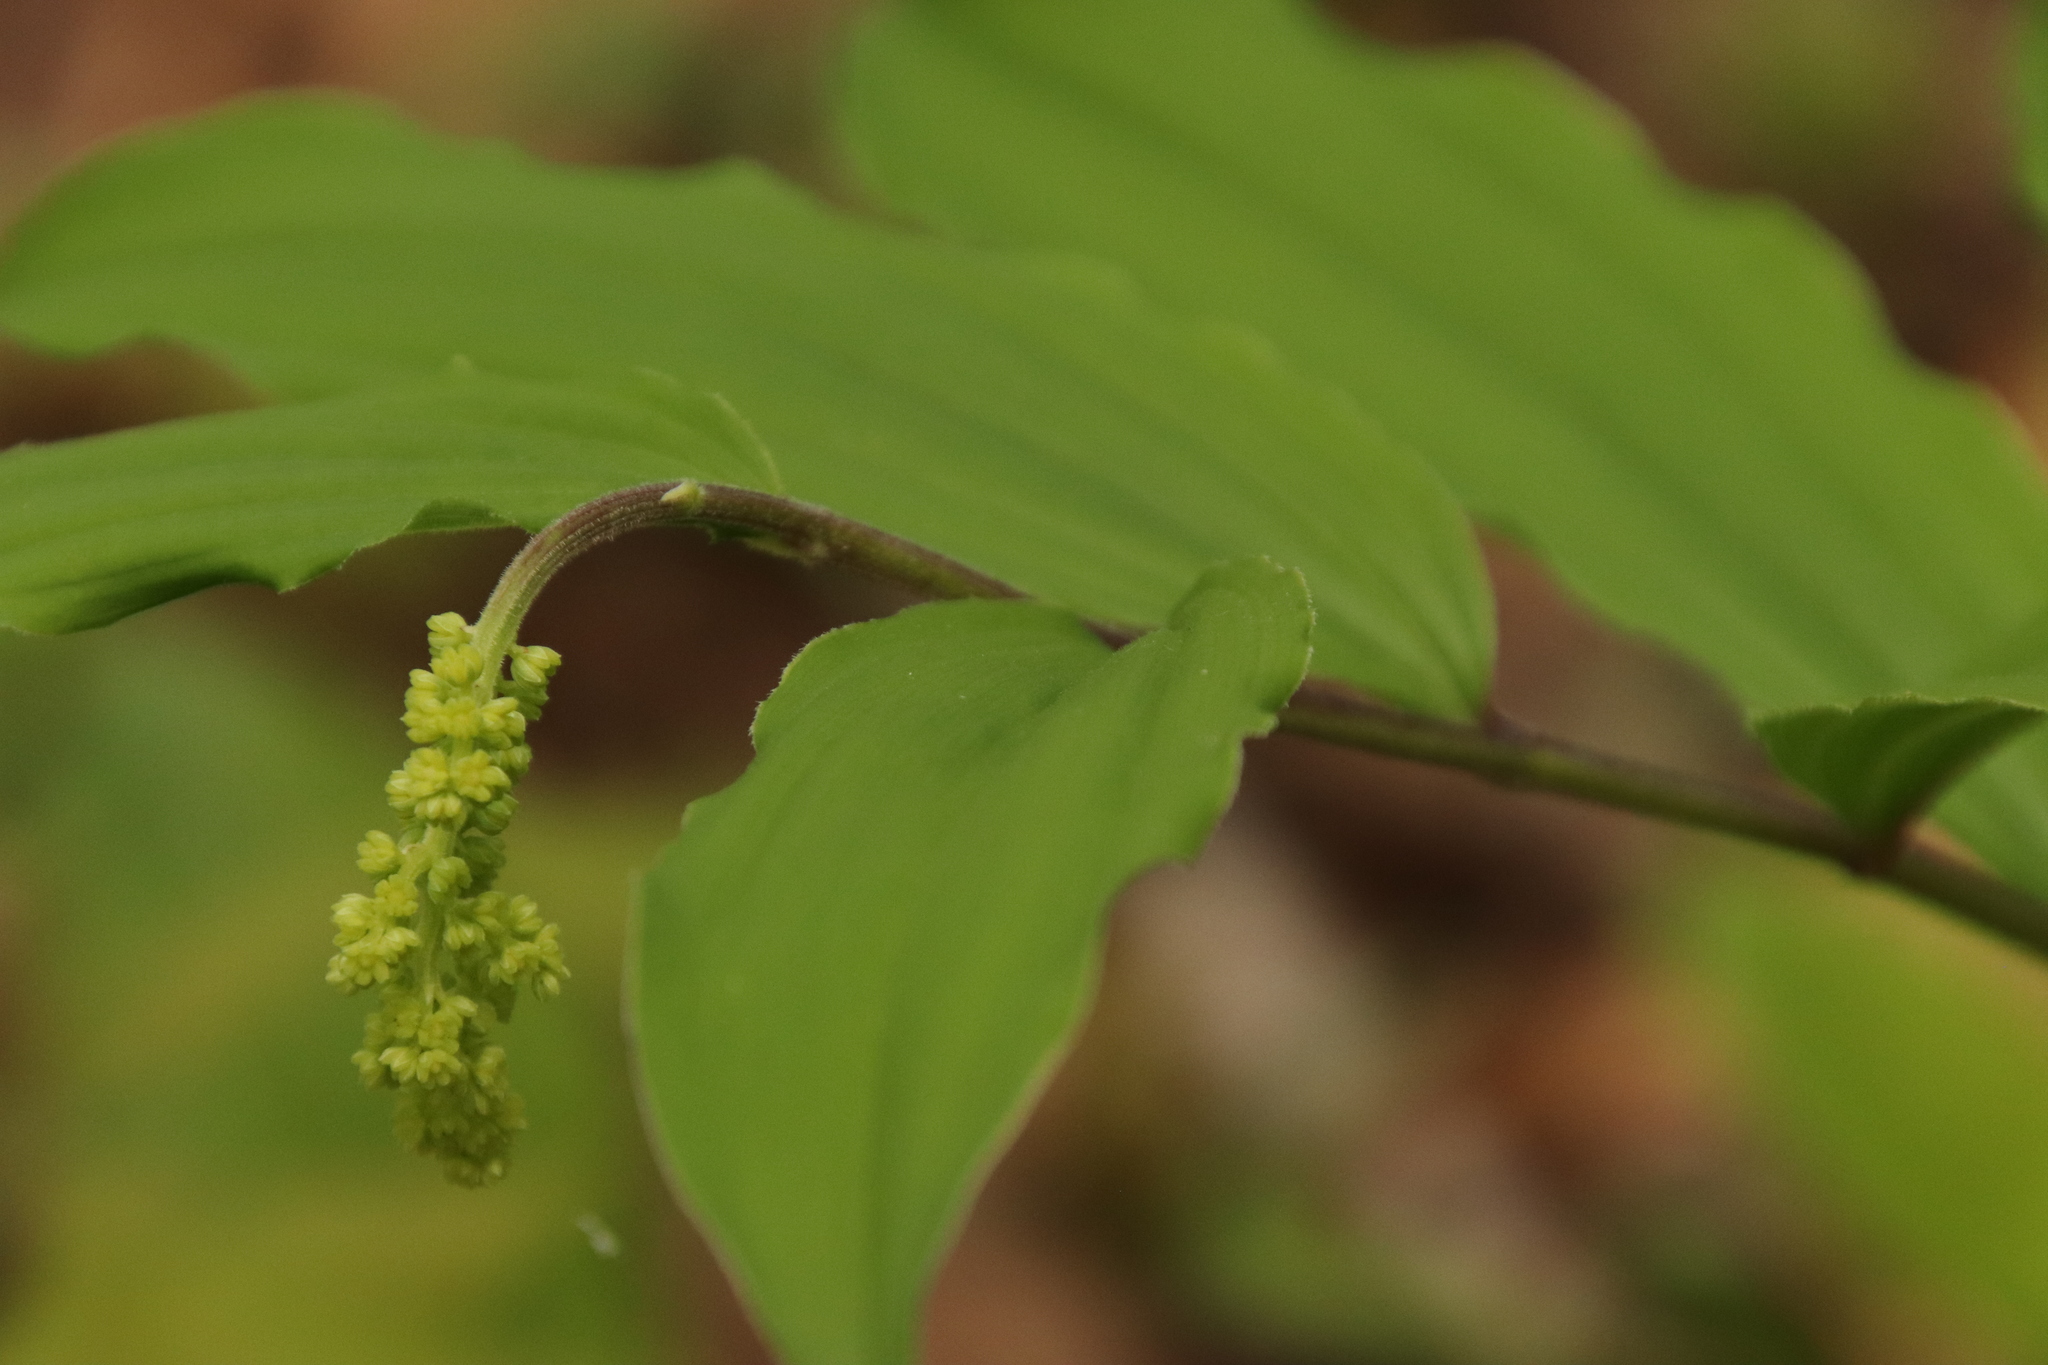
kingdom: Plantae
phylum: Tracheophyta
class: Liliopsida
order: Asparagales
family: Asparagaceae
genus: Maianthemum
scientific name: Maianthemum racemosum
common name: False spikenard
